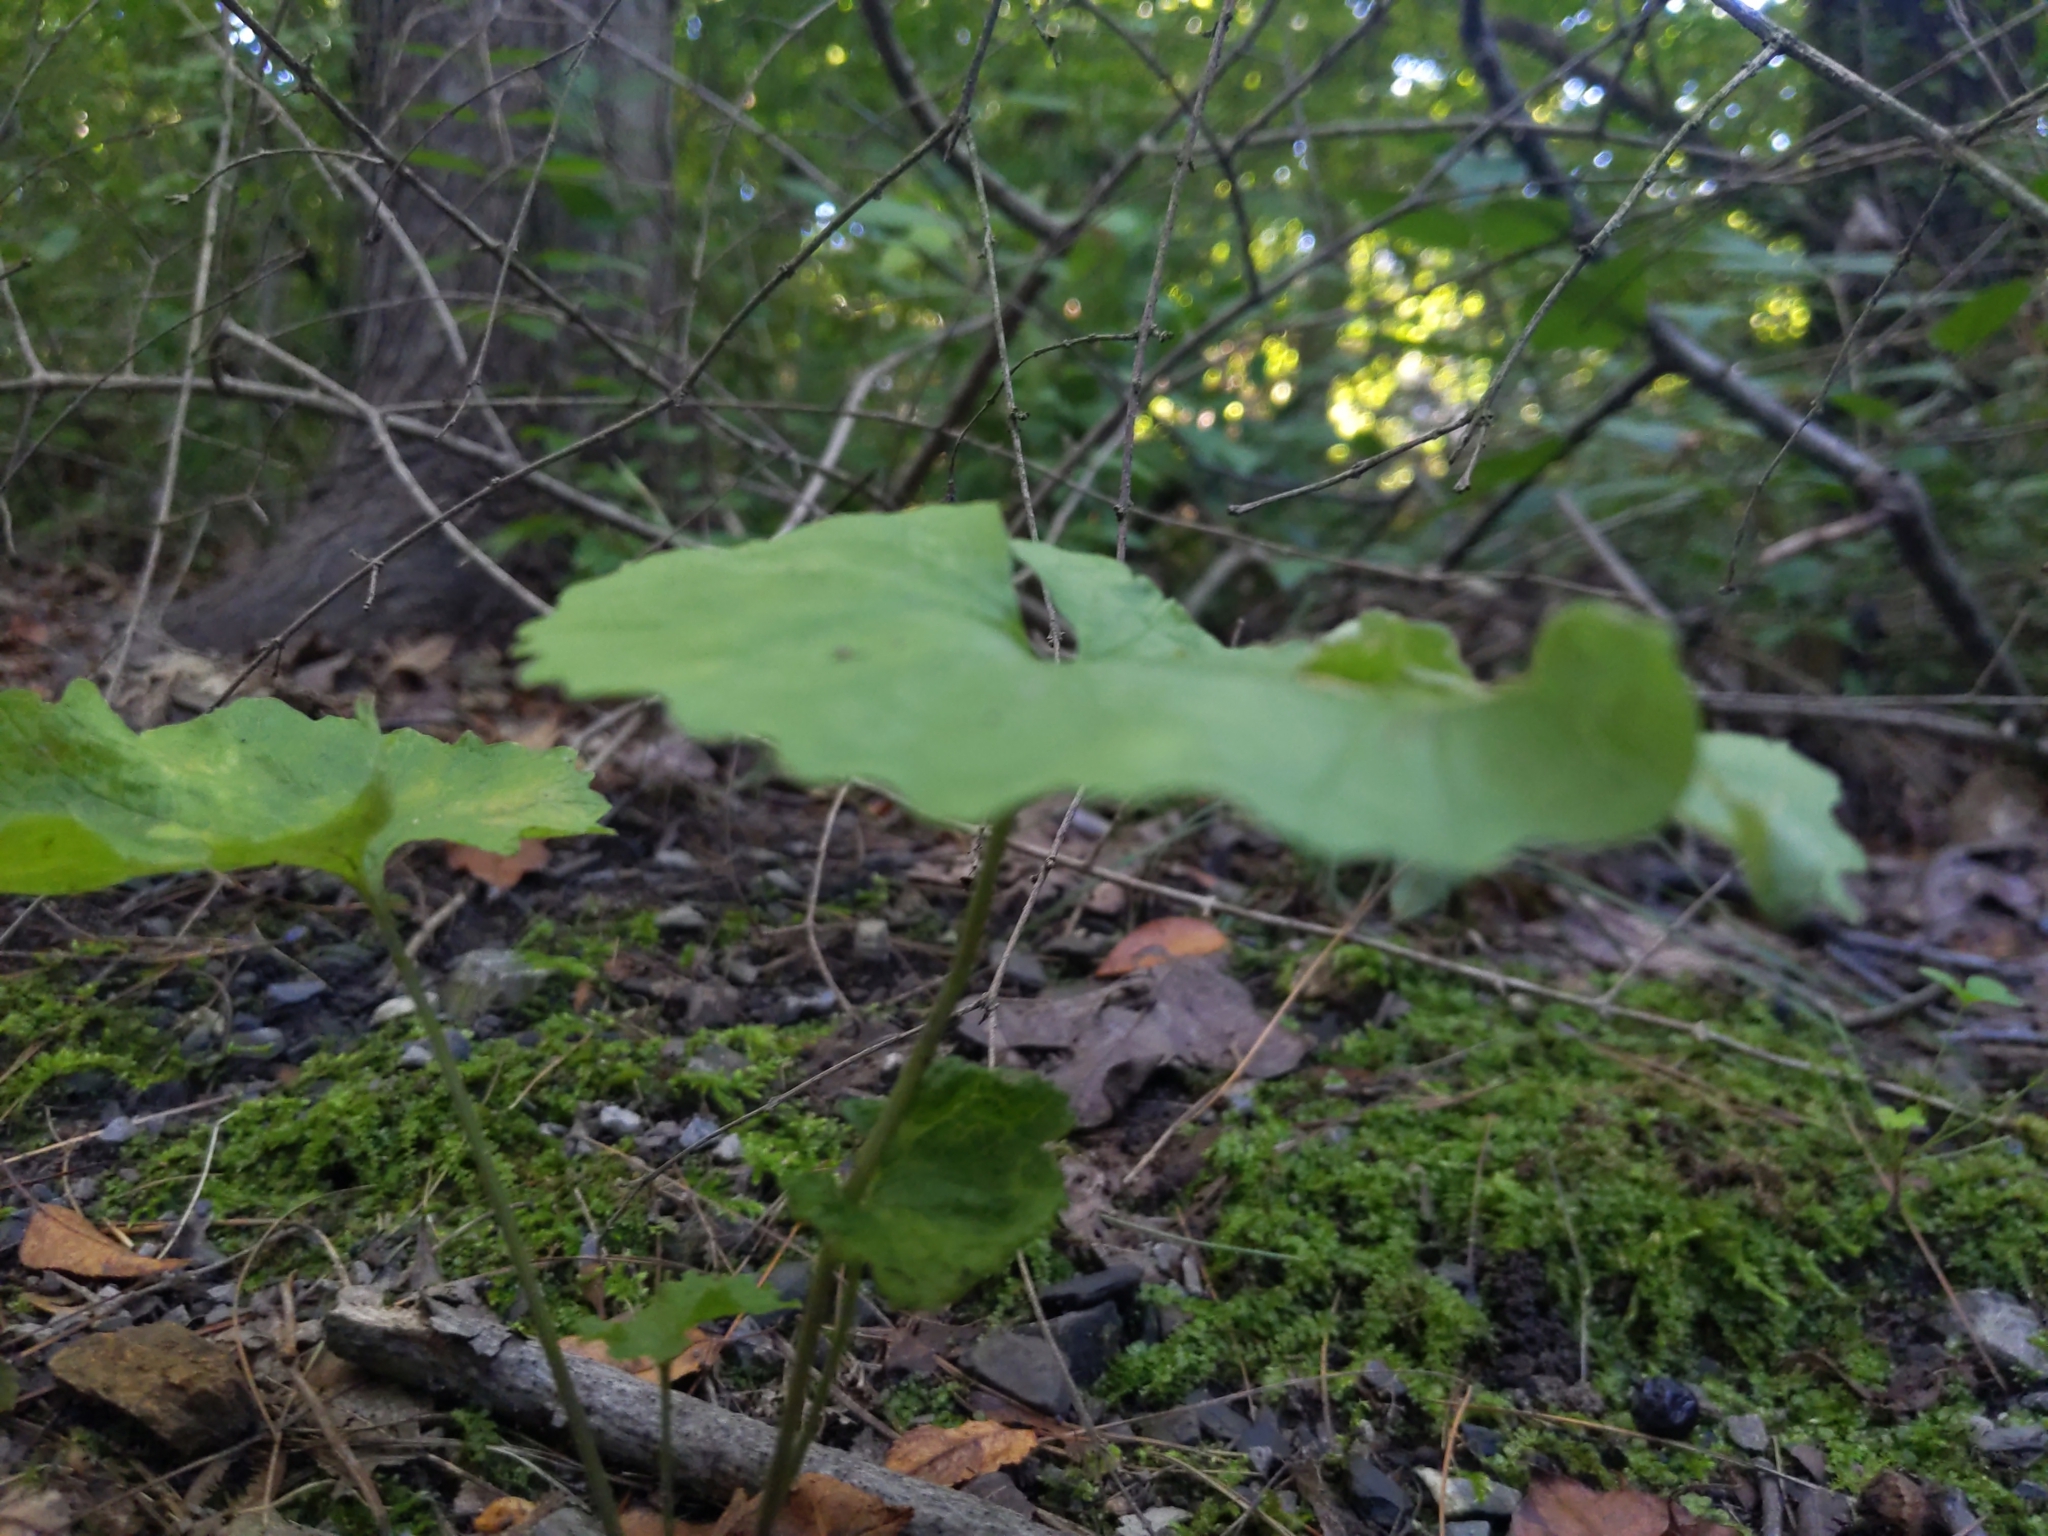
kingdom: Plantae
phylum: Tracheophyta
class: Magnoliopsida
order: Brassicales
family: Brassicaceae
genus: Alliaria
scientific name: Alliaria petiolata
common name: Garlic mustard
